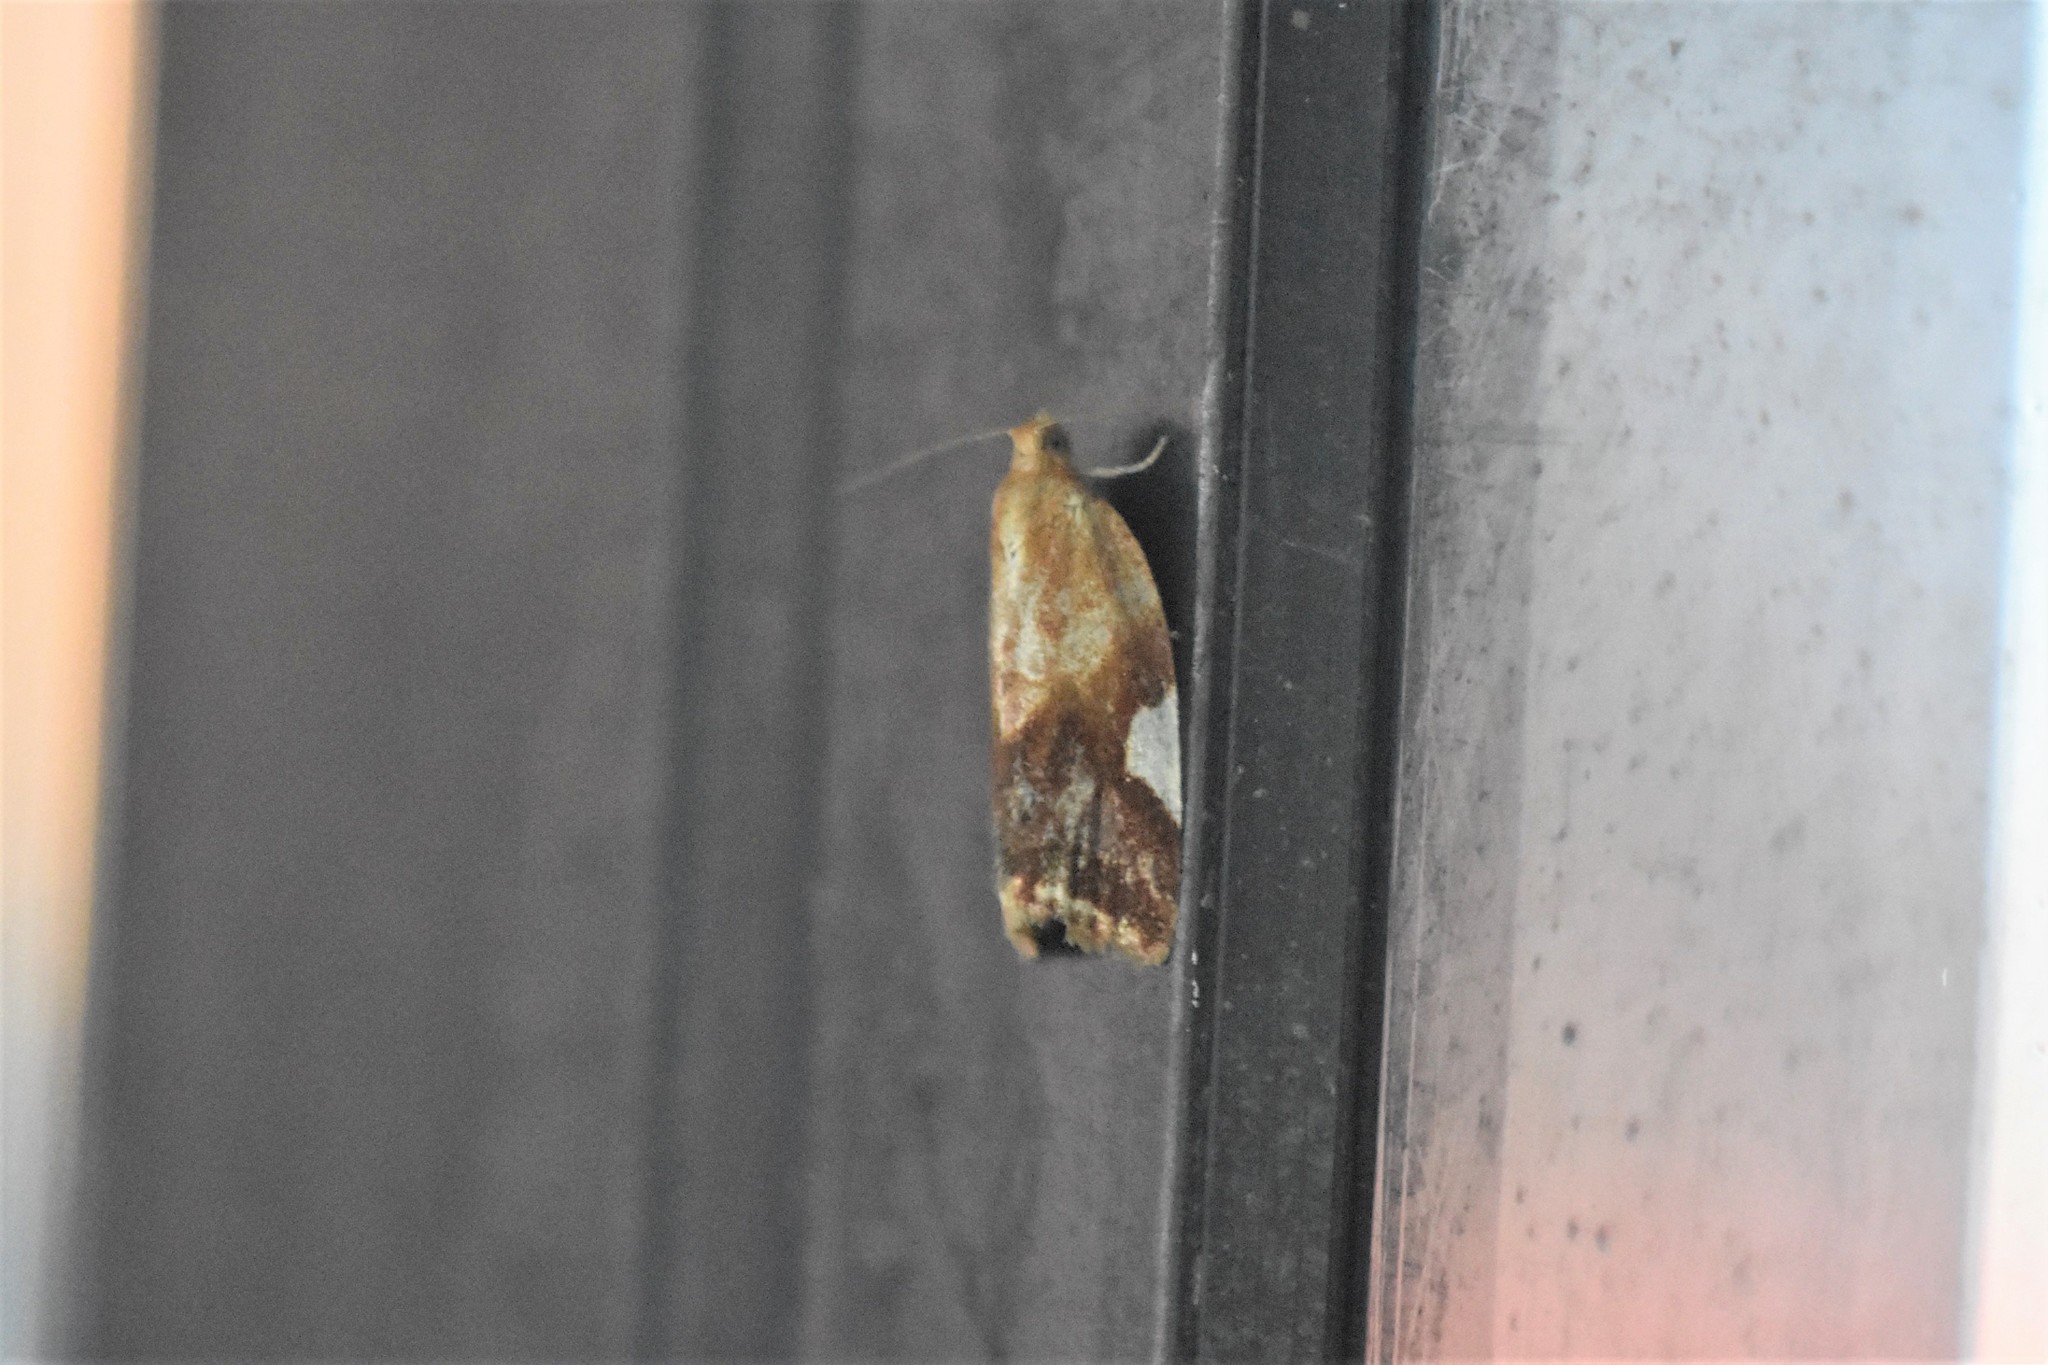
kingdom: Animalia
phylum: Arthropoda
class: Insecta
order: Lepidoptera
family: Tortricidae
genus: Clepsis
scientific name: Clepsis persicana
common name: White triangle tortrix
